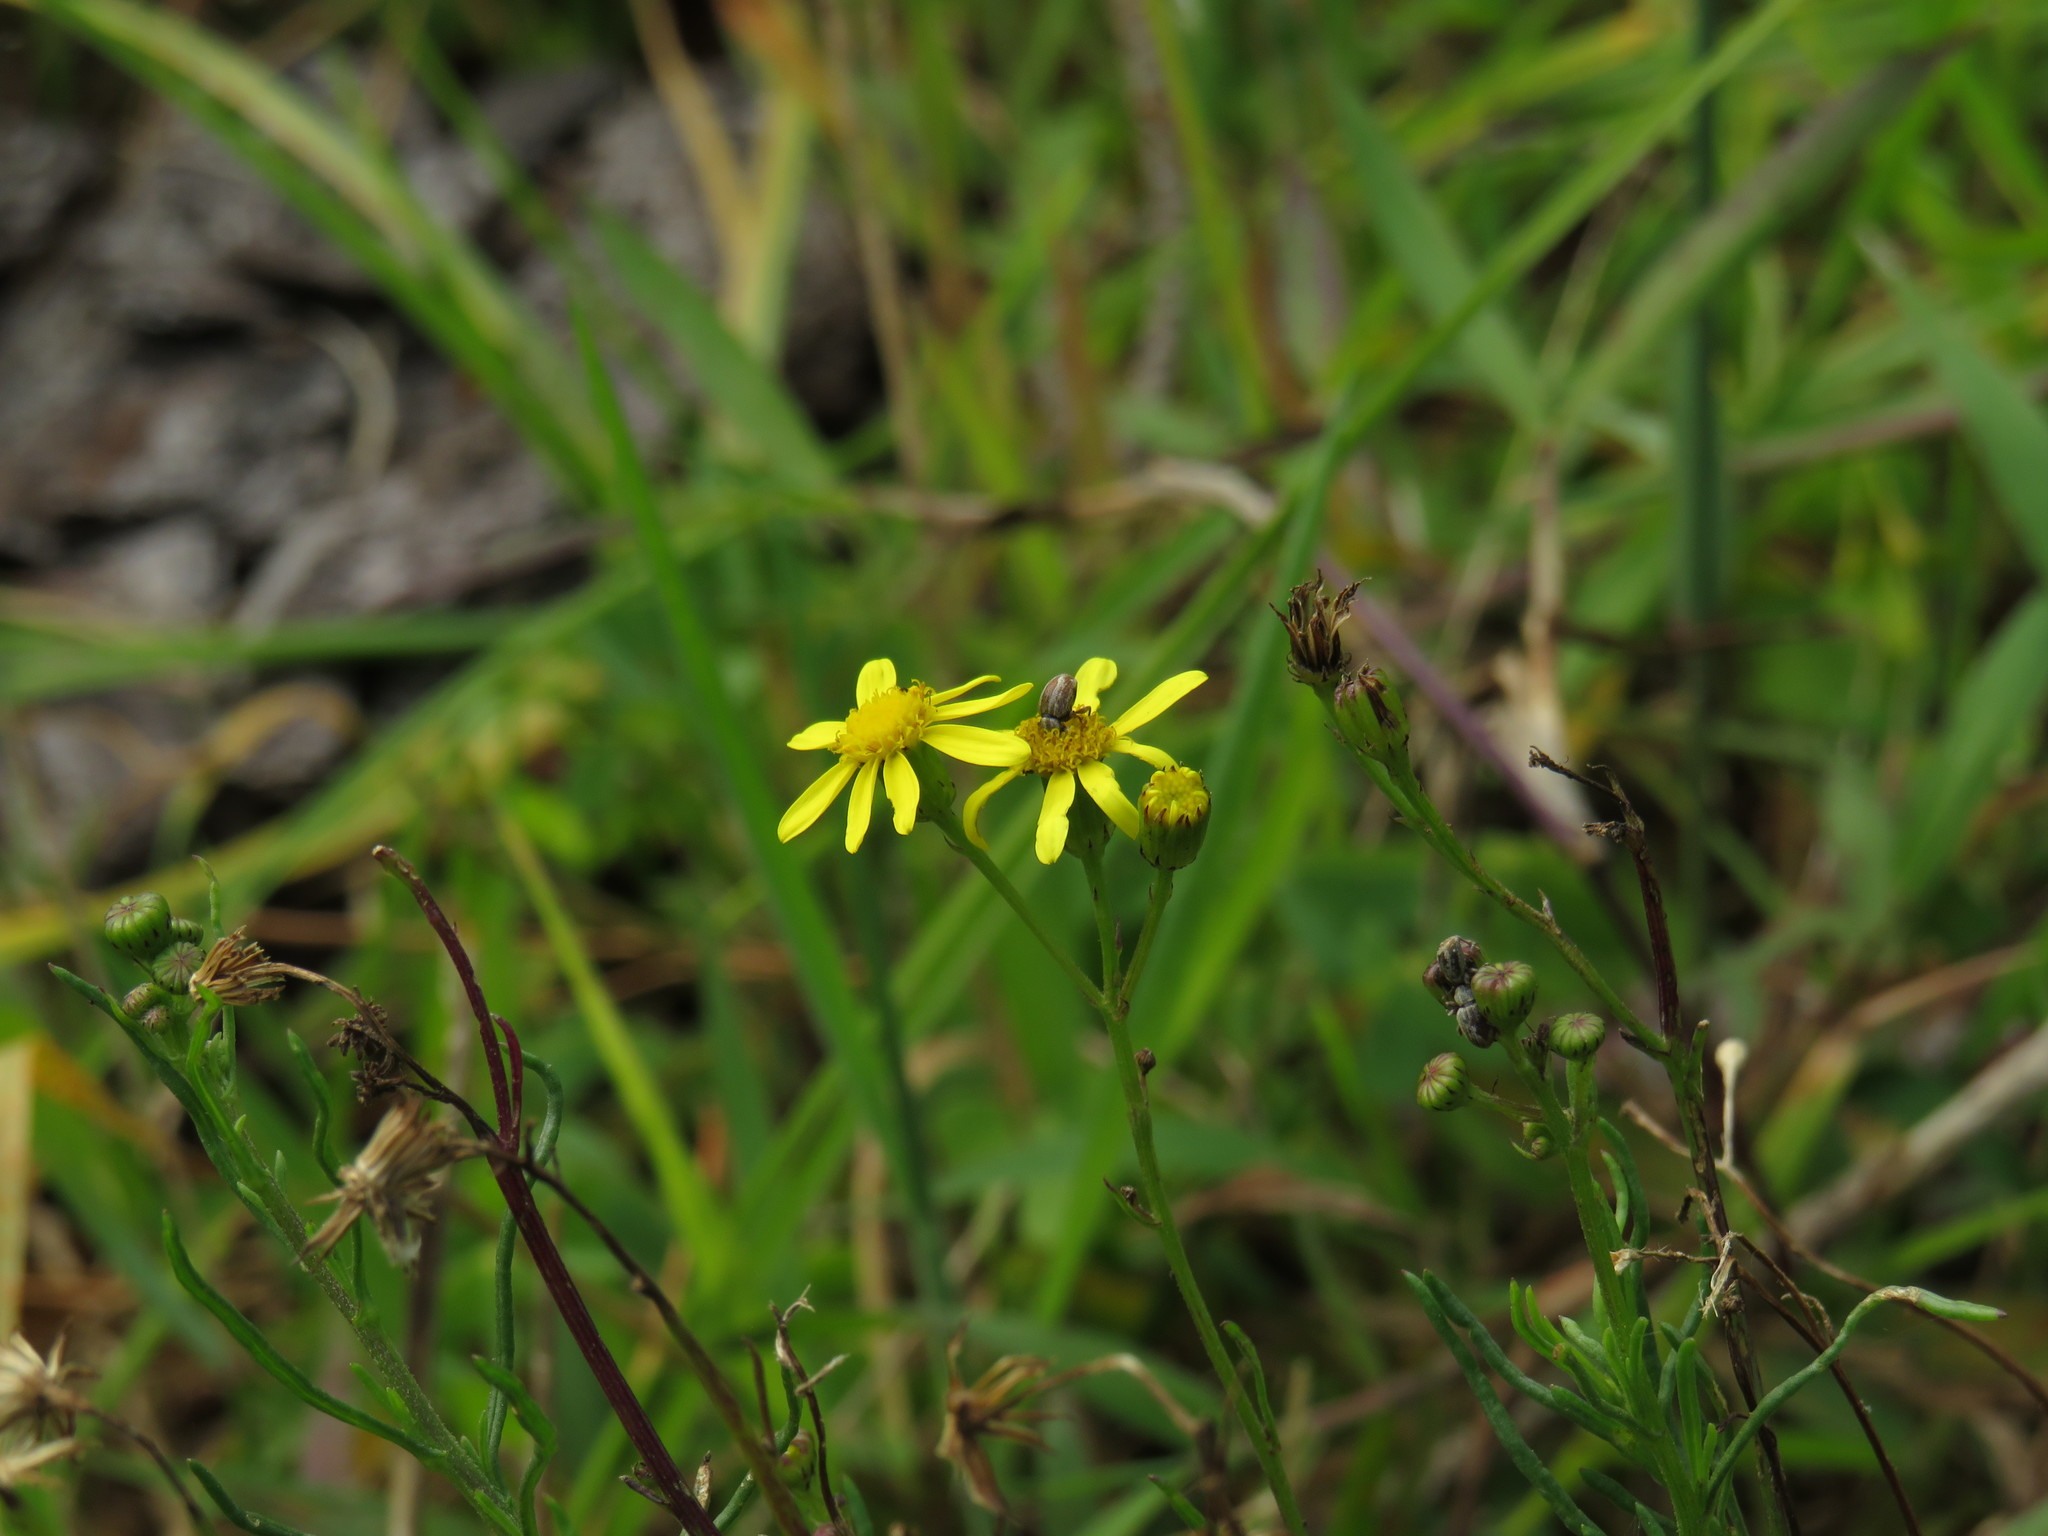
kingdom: Plantae
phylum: Tracheophyta
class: Magnoliopsida
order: Asterales
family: Asteraceae
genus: Senecio
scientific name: Senecio burchellii
